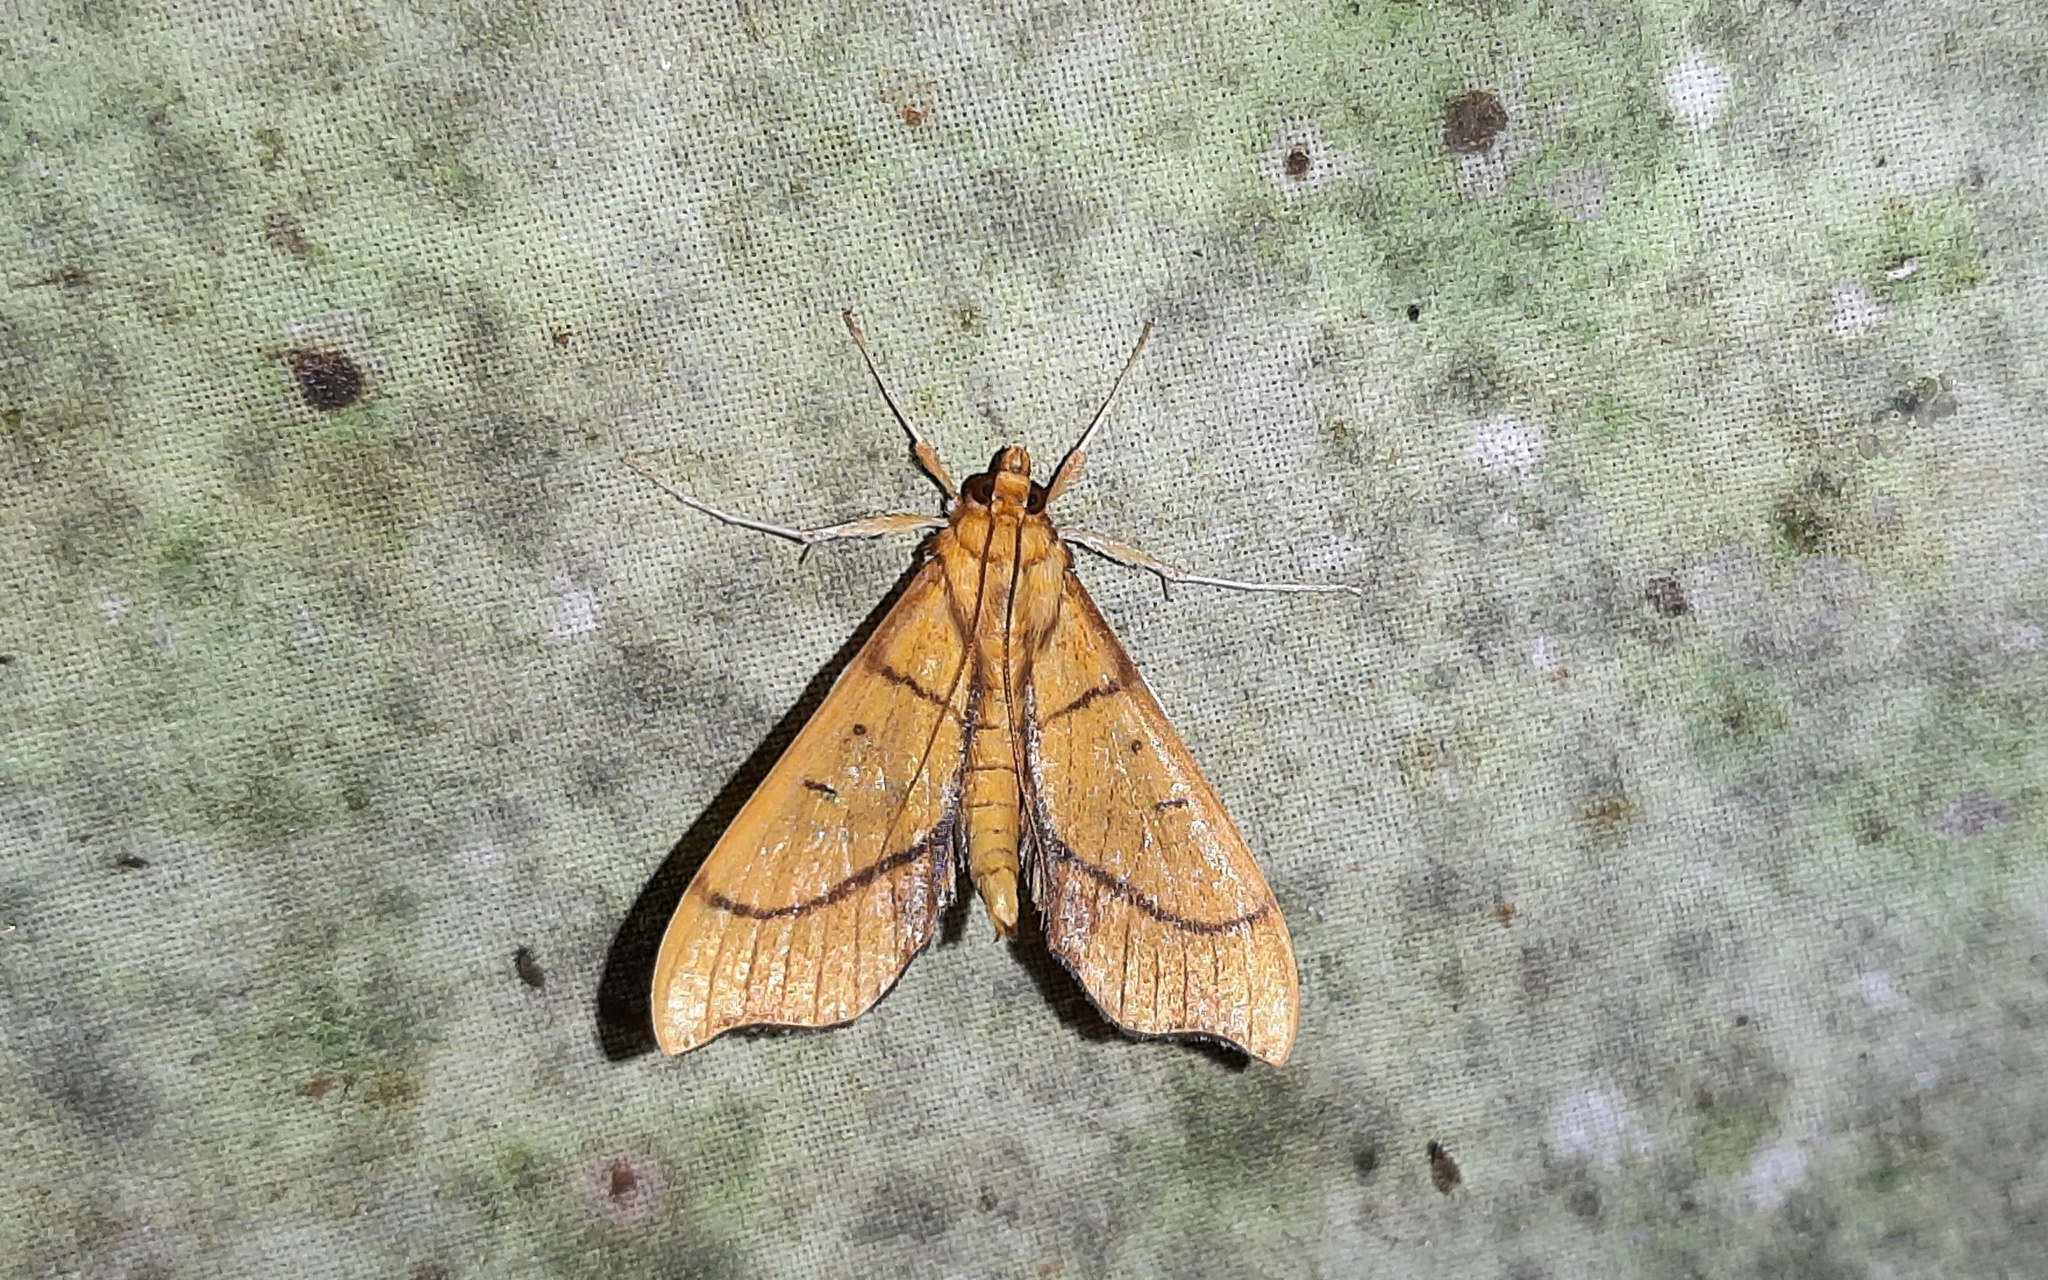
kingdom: Animalia
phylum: Arthropoda
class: Insecta
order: Lepidoptera
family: Crambidae
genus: Sparagmia
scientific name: Sparagmia gonoptera
